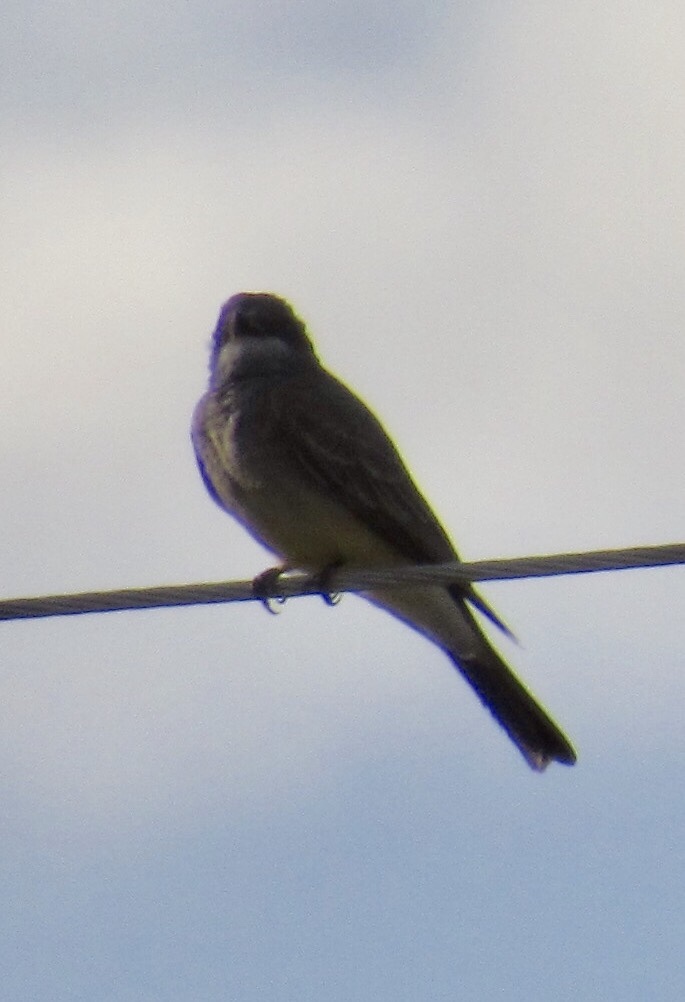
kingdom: Animalia
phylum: Chordata
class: Aves
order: Passeriformes
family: Tyrannidae
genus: Tyrannus
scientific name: Tyrannus vociferans
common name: Cassin's kingbird
